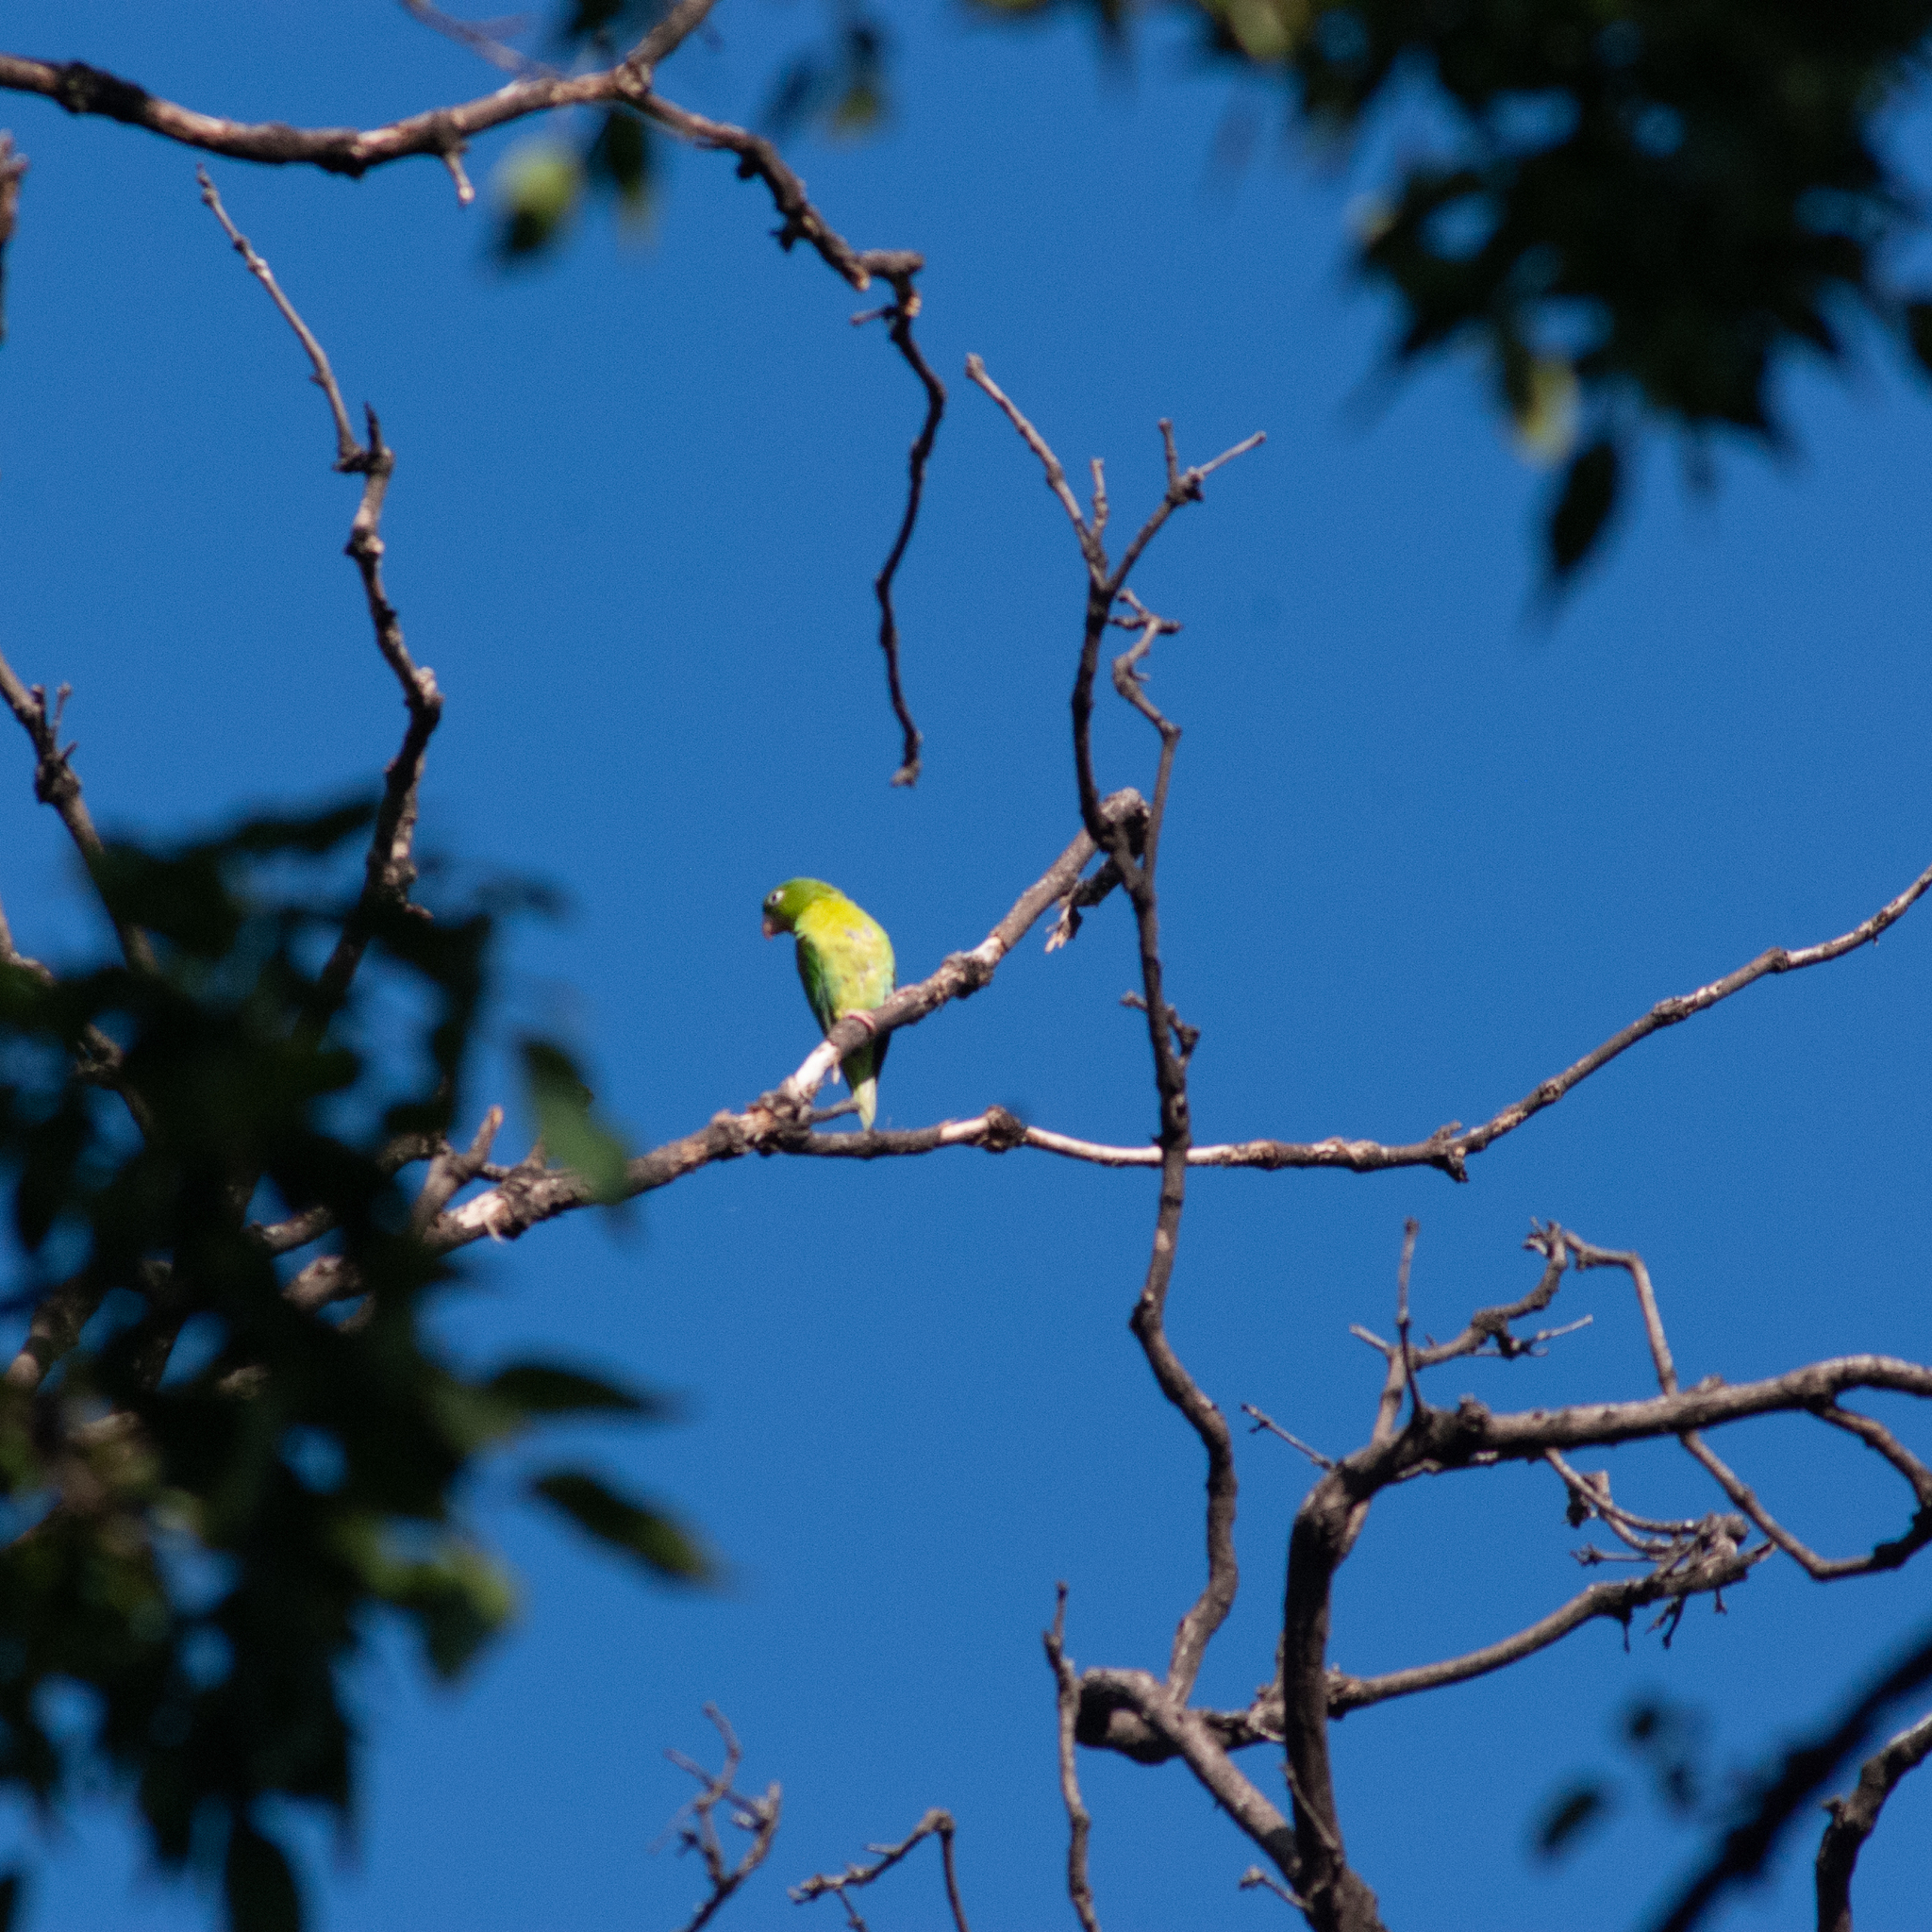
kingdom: Animalia
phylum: Chordata
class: Aves
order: Psittaciformes
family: Psittacidae
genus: Brotogeris
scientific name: Brotogeris jugularis
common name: Orange-chinned parakeet
